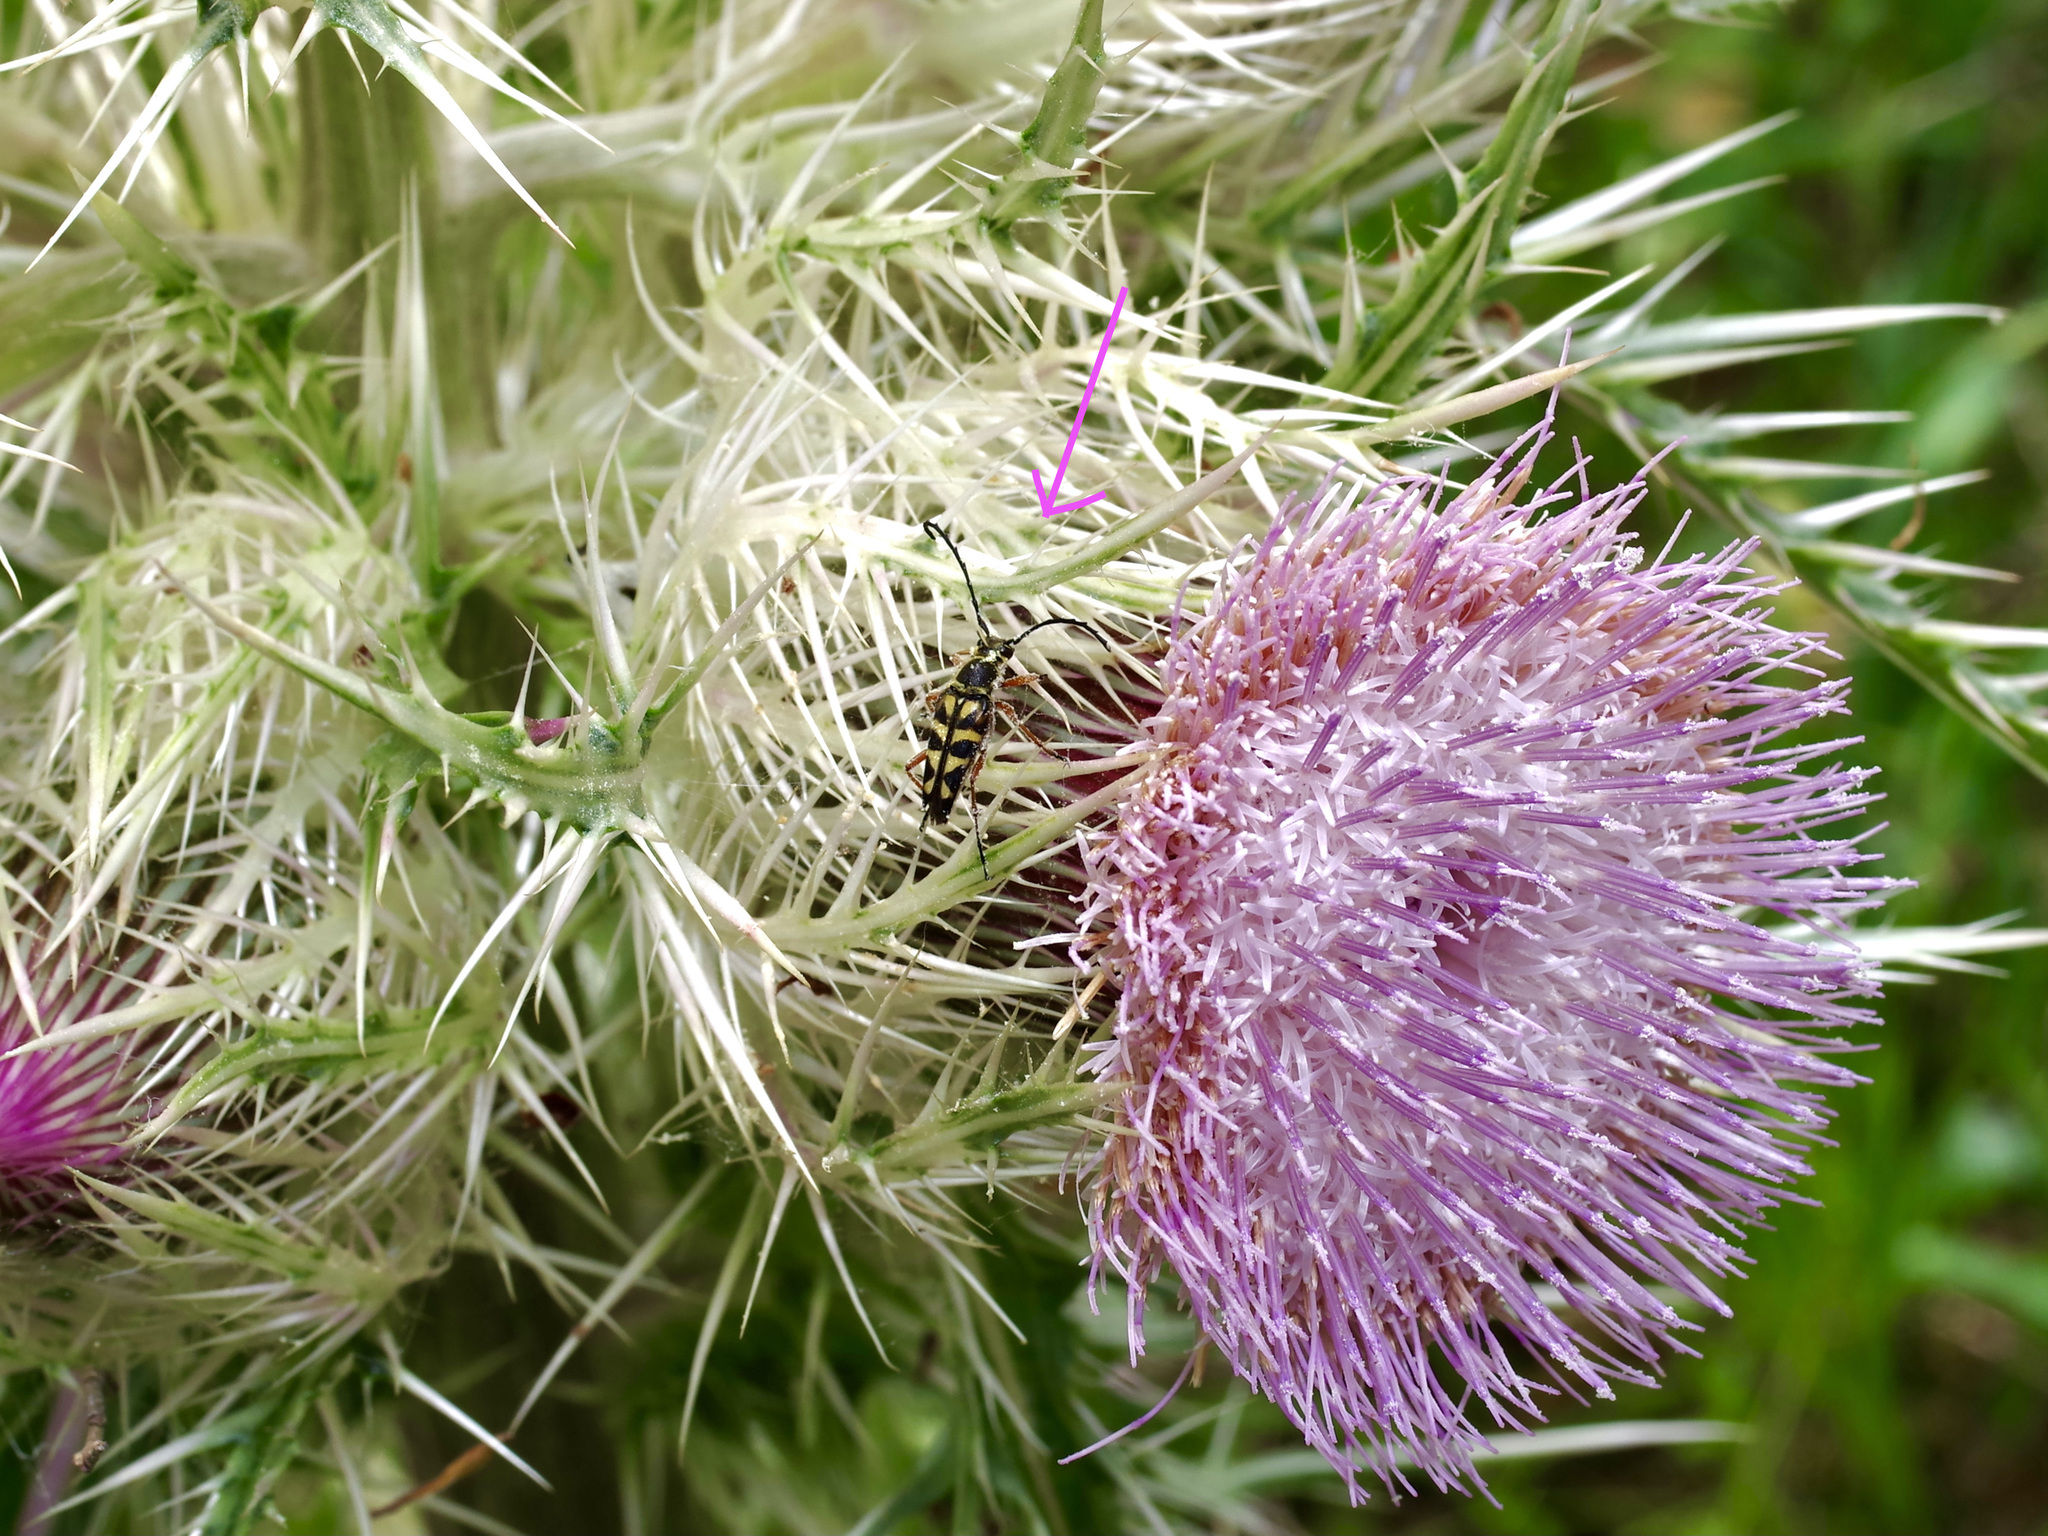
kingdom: Animalia
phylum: Arthropoda
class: Insecta
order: Coleoptera
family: Cerambycidae
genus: Typocerus
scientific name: Typocerus zebra
